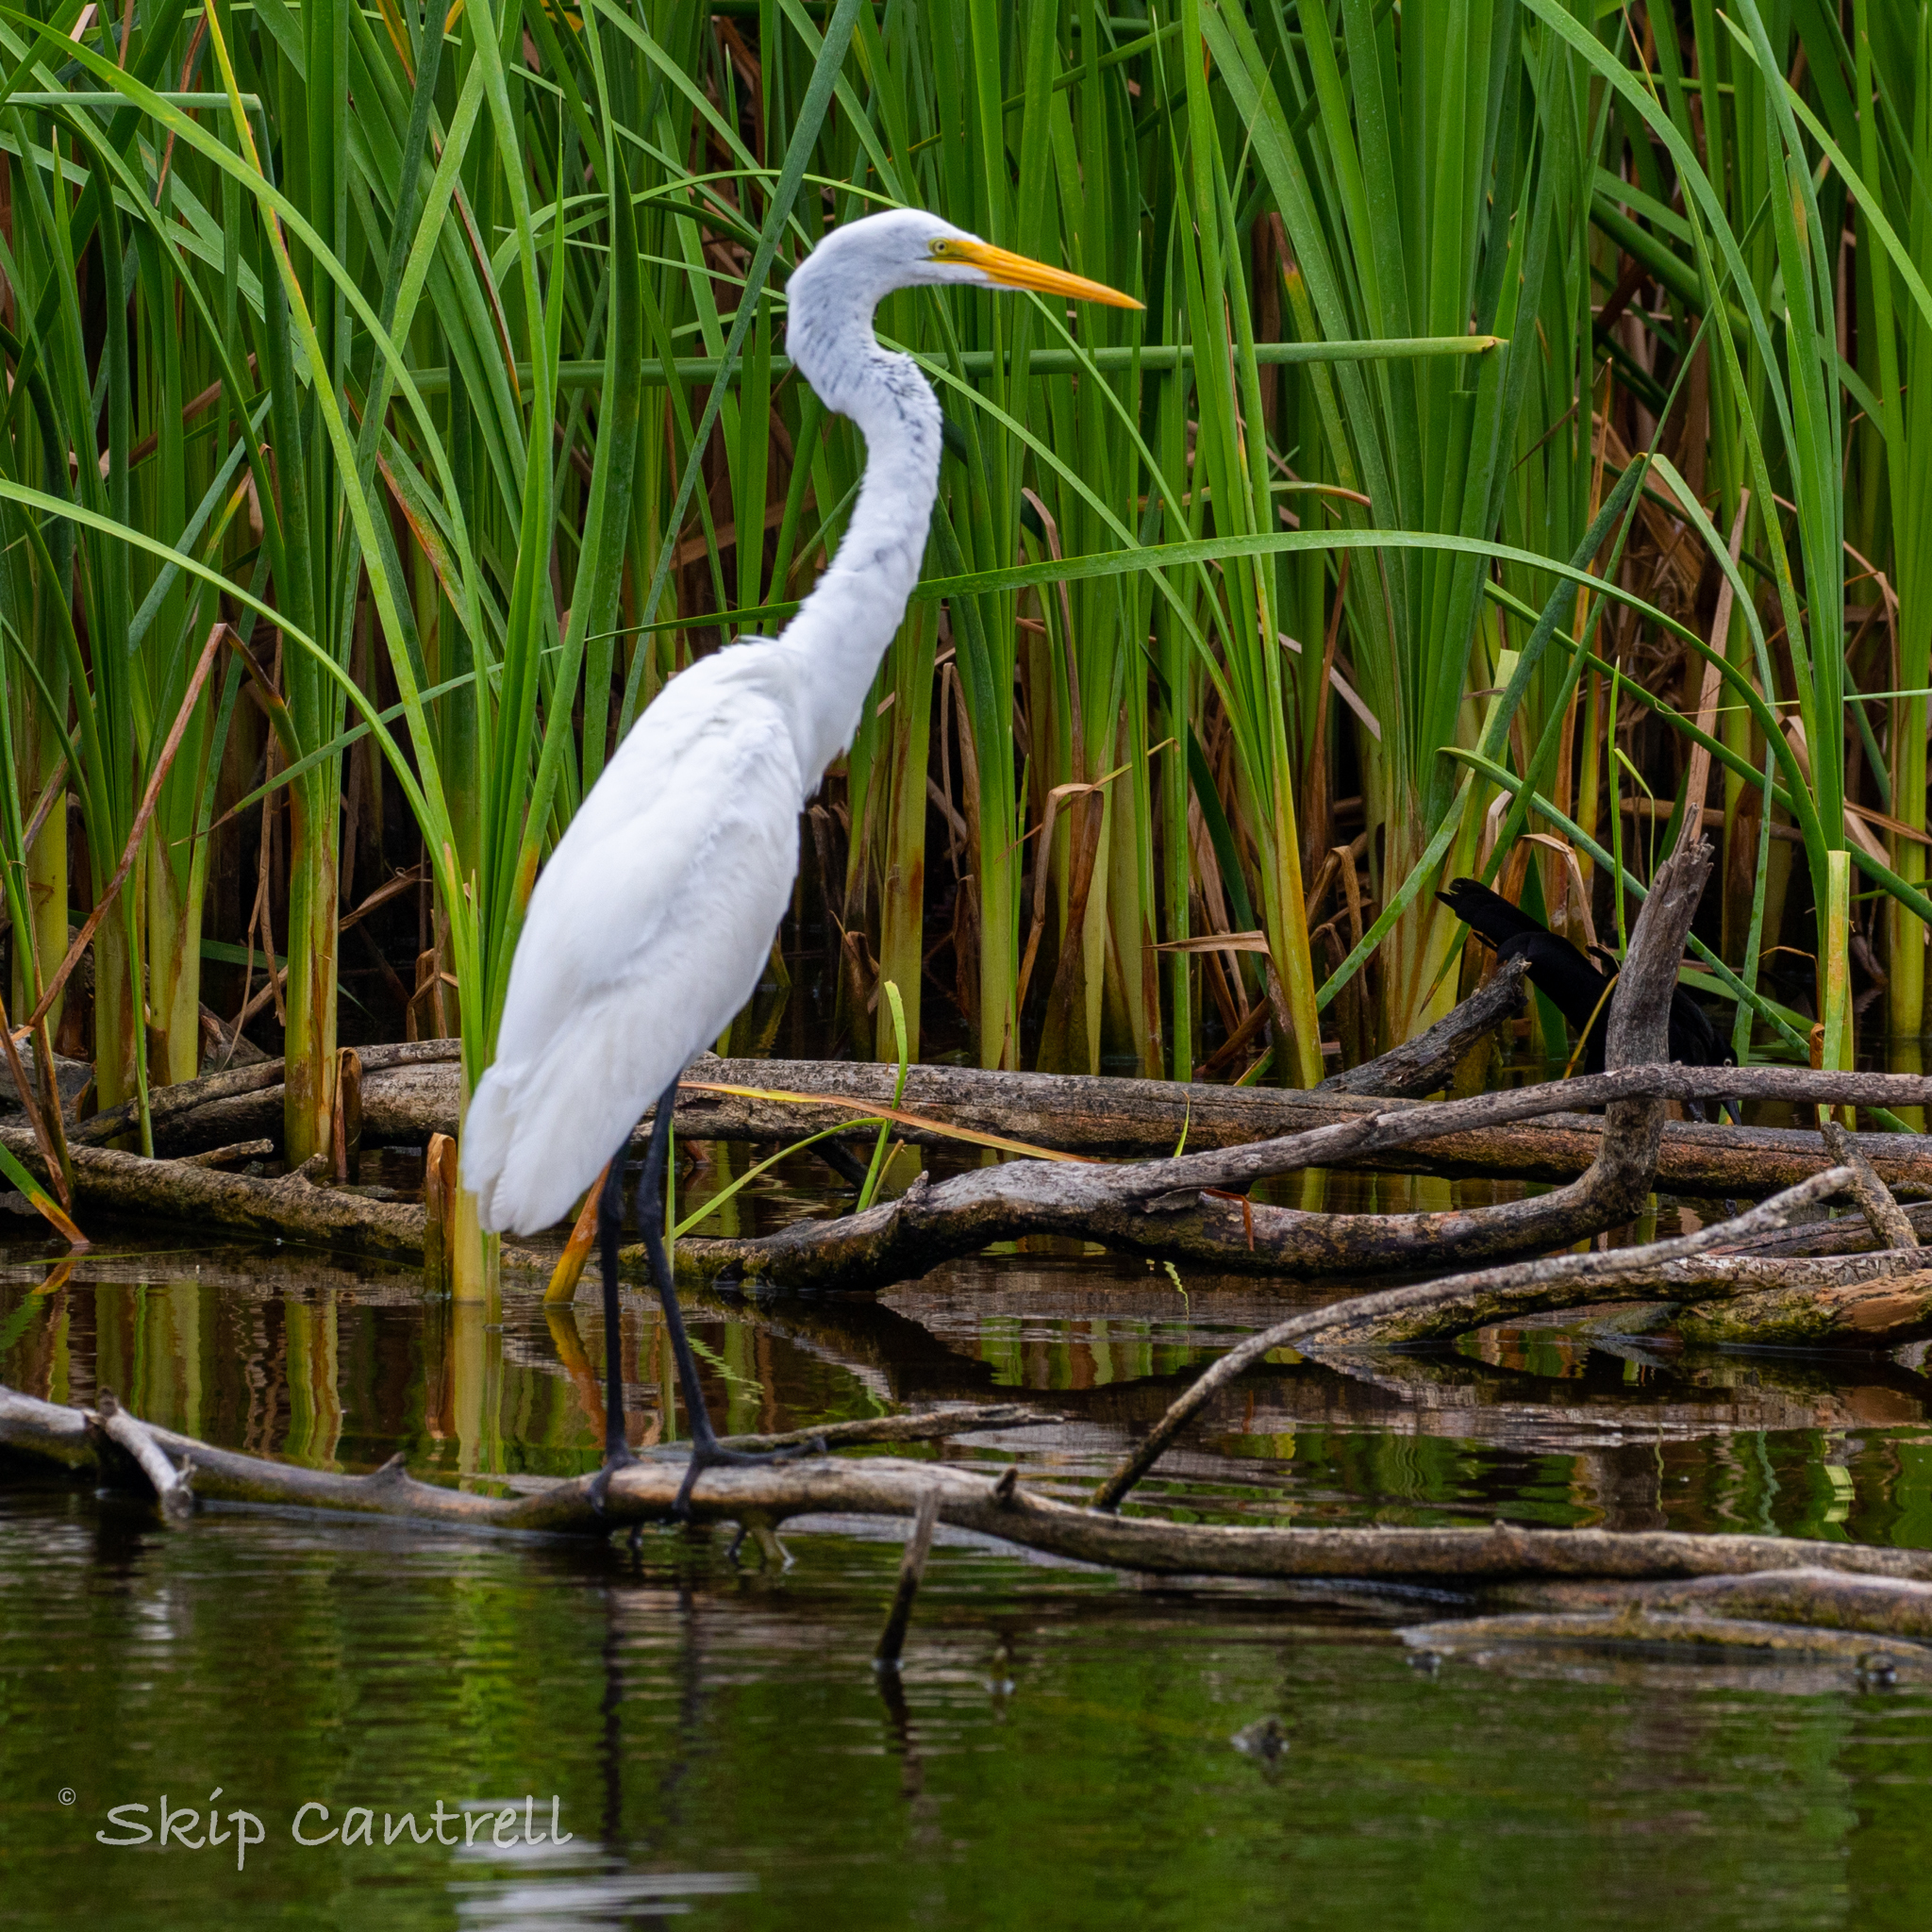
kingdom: Animalia
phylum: Chordata
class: Aves
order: Pelecaniformes
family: Ardeidae
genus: Ardea
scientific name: Ardea alba
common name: Great egret
